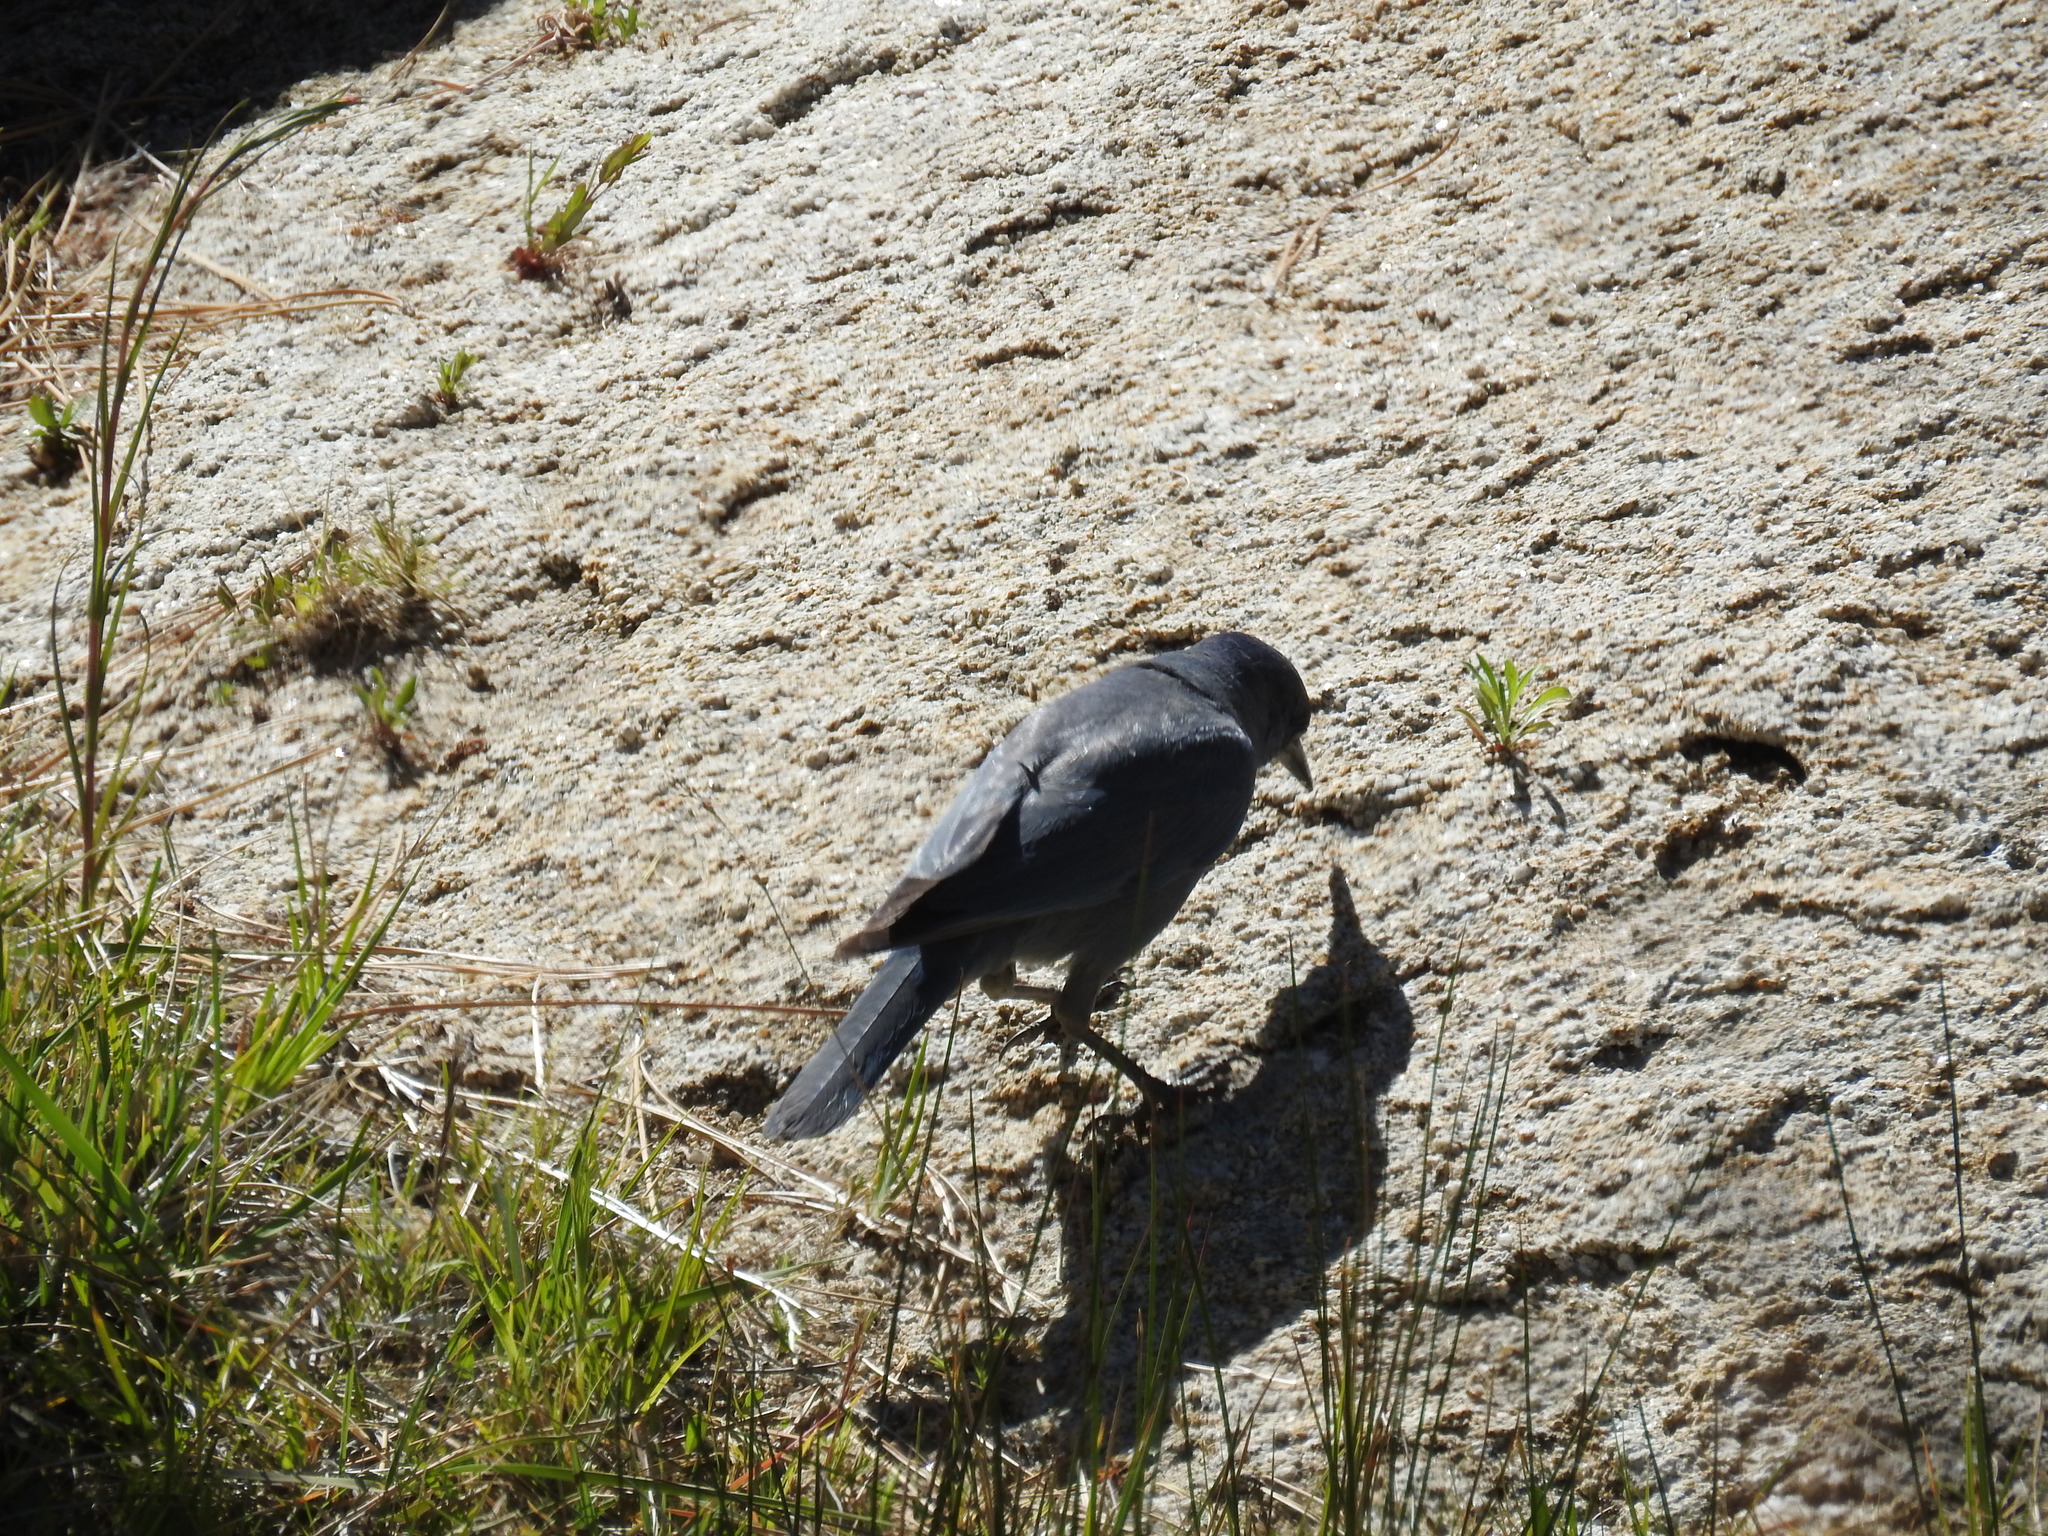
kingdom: Animalia
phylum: Chordata
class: Aves
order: Passeriformes
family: Corvidae
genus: Gymnorhinus
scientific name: Gymnorhinus cyanocephalus
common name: Pinyon jay
